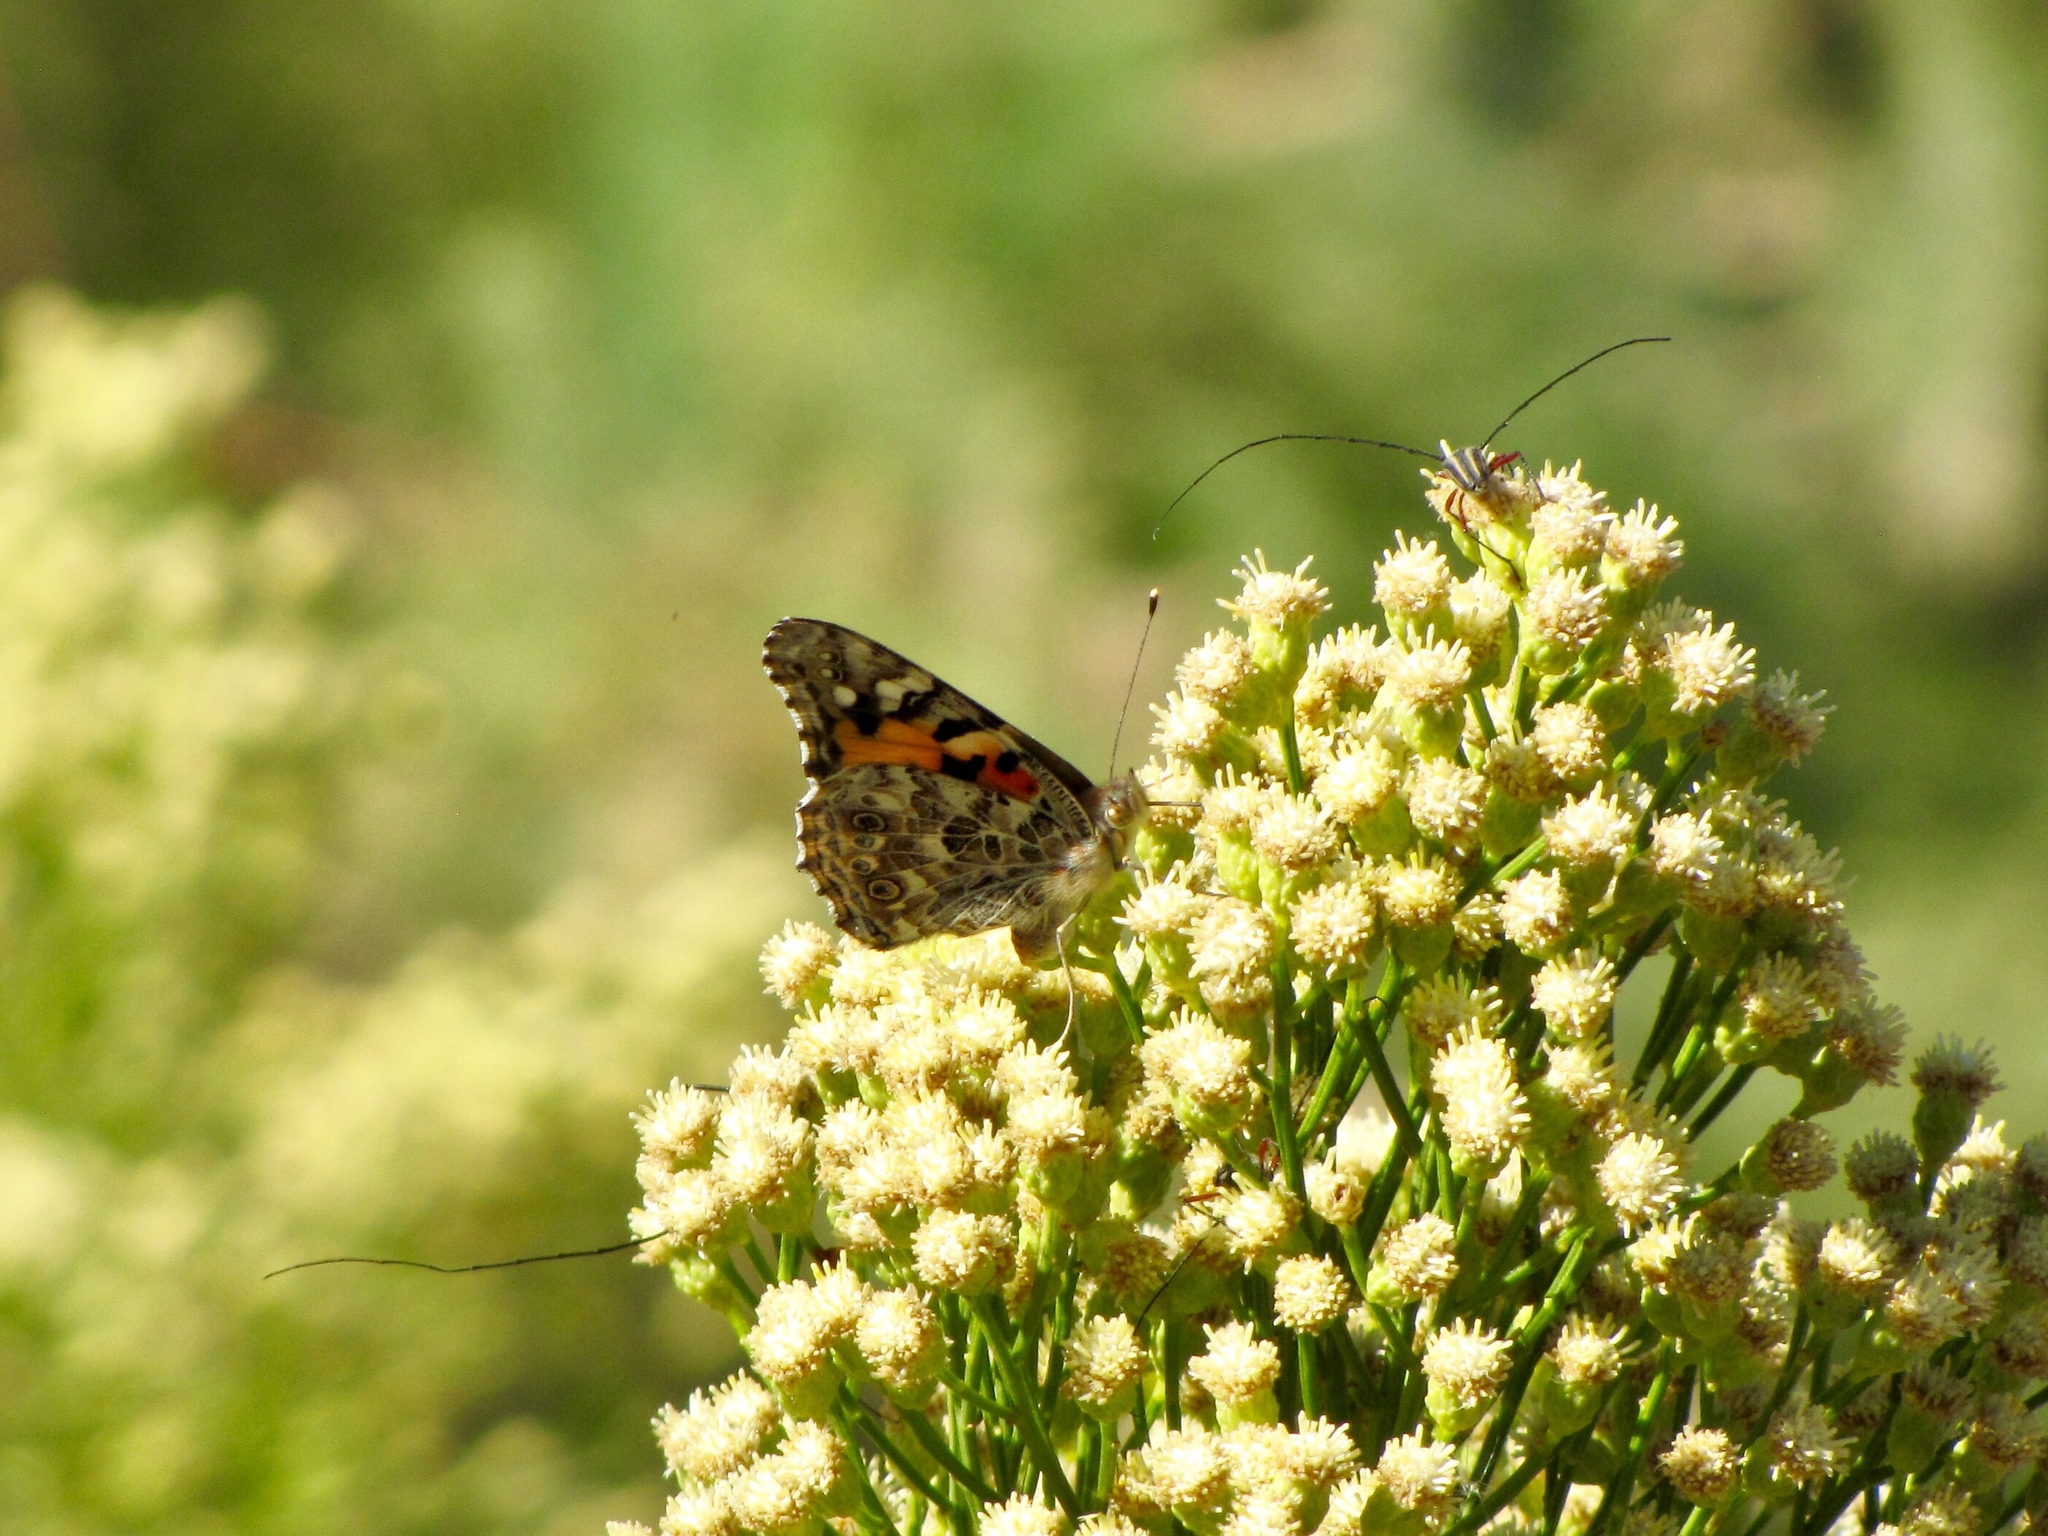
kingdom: Animalia
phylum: Arthropoda
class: Insecta
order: Lepidoptera
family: Nymphalidae
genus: Vanessa
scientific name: Vanessa cardui
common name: Painted lady
